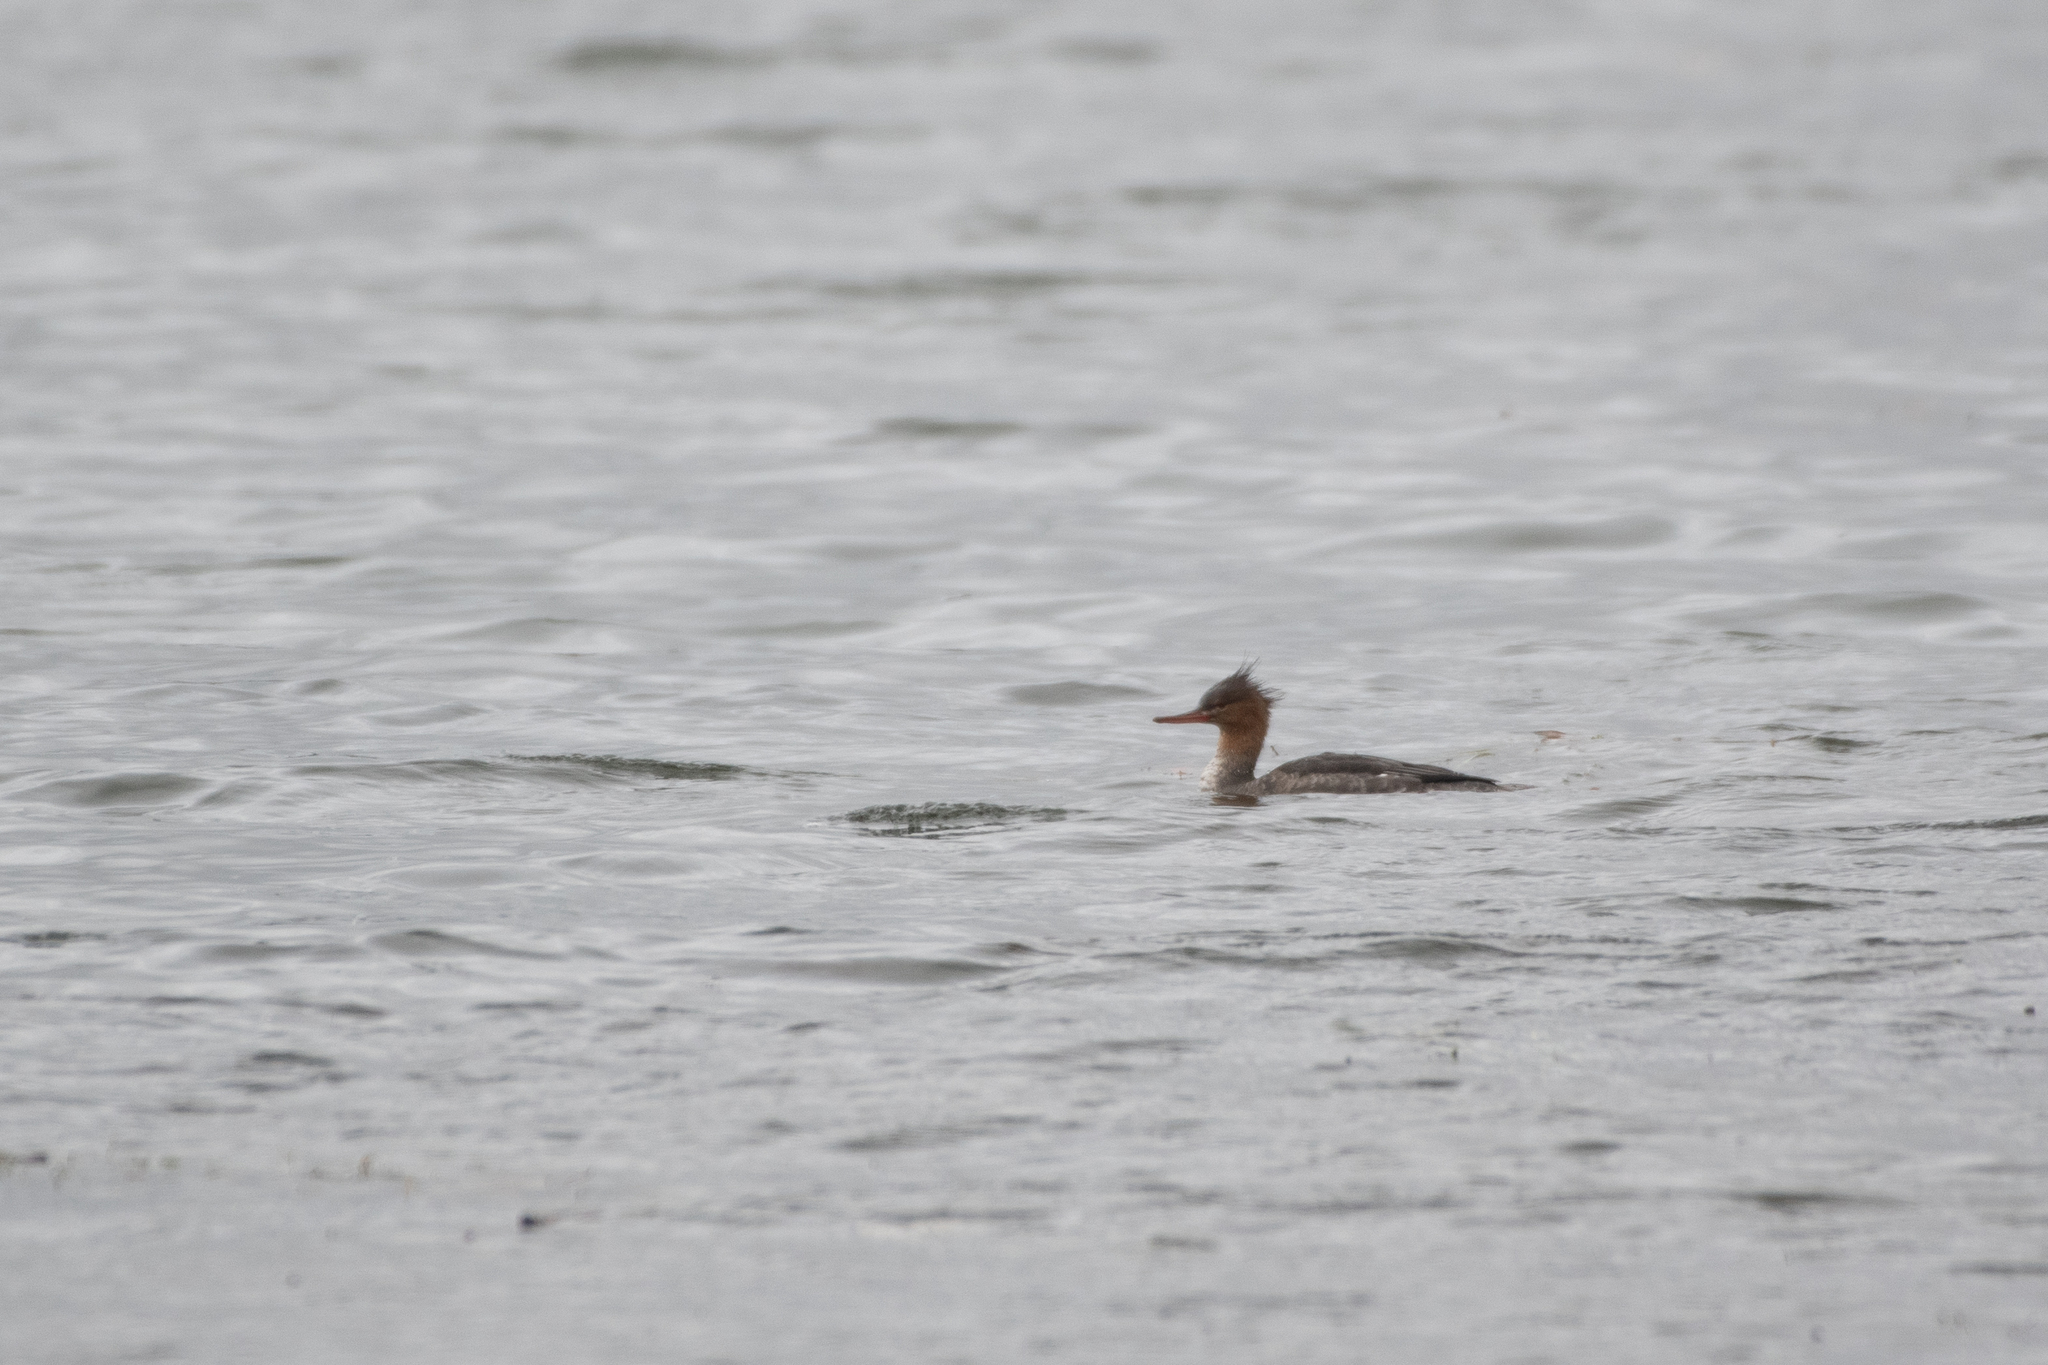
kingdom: Animalia
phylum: Chordata
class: Aves
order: Anseriformes
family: Anatidae
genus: Mergus
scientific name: Mergus serrator
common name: Red-breasted merganser
